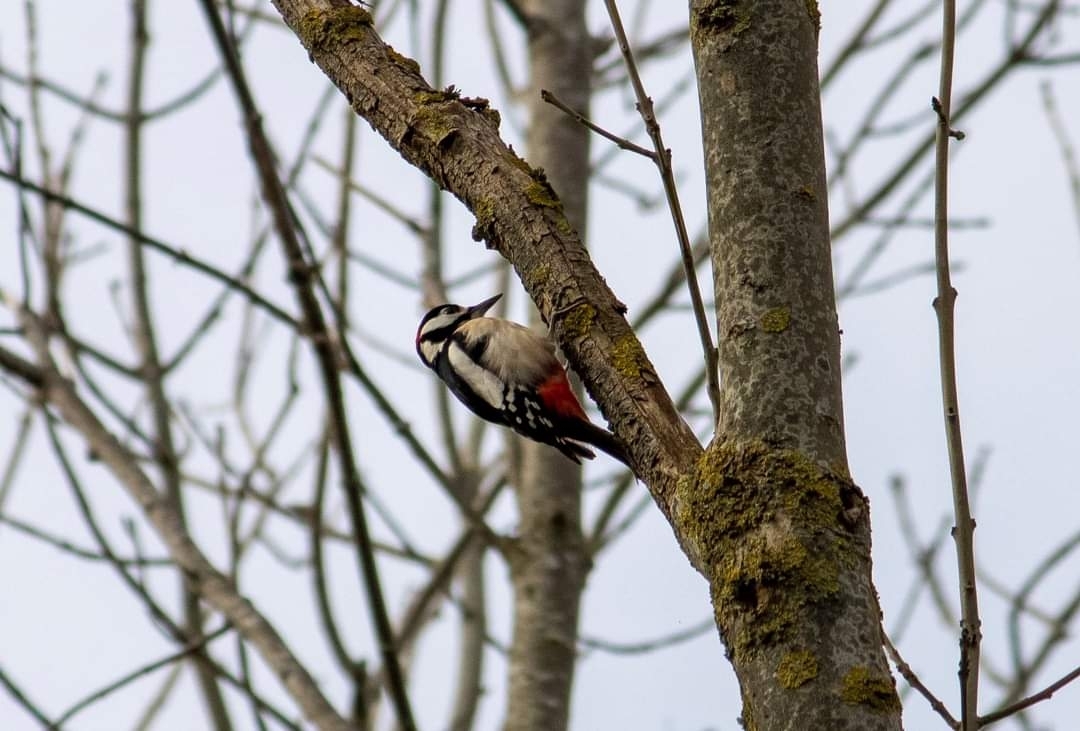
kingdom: Animalia
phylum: Chordata
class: Aves
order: Piciformes
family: Picidae
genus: Dendrocopos
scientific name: Dendrocopos major
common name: Great spotted woodpecker
